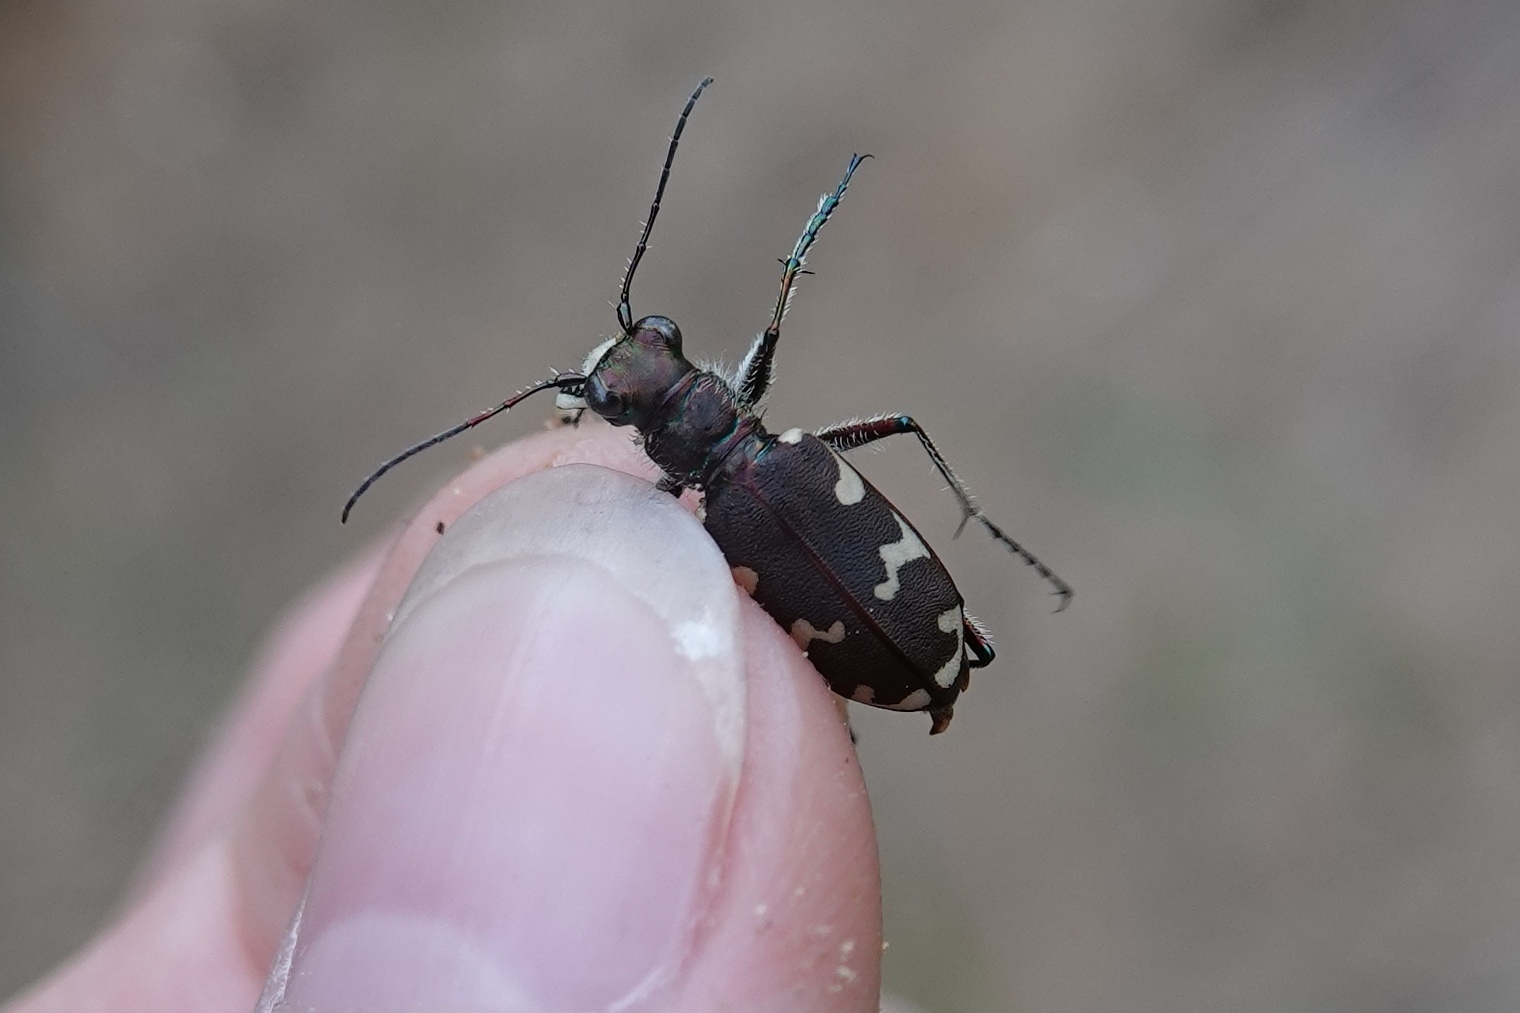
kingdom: Animalia
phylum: Arthropoda
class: Insecta
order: Coleoptera
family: Carabidae
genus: Cicindela
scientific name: Cicindela hybrida
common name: Northern dune tiger beetle
